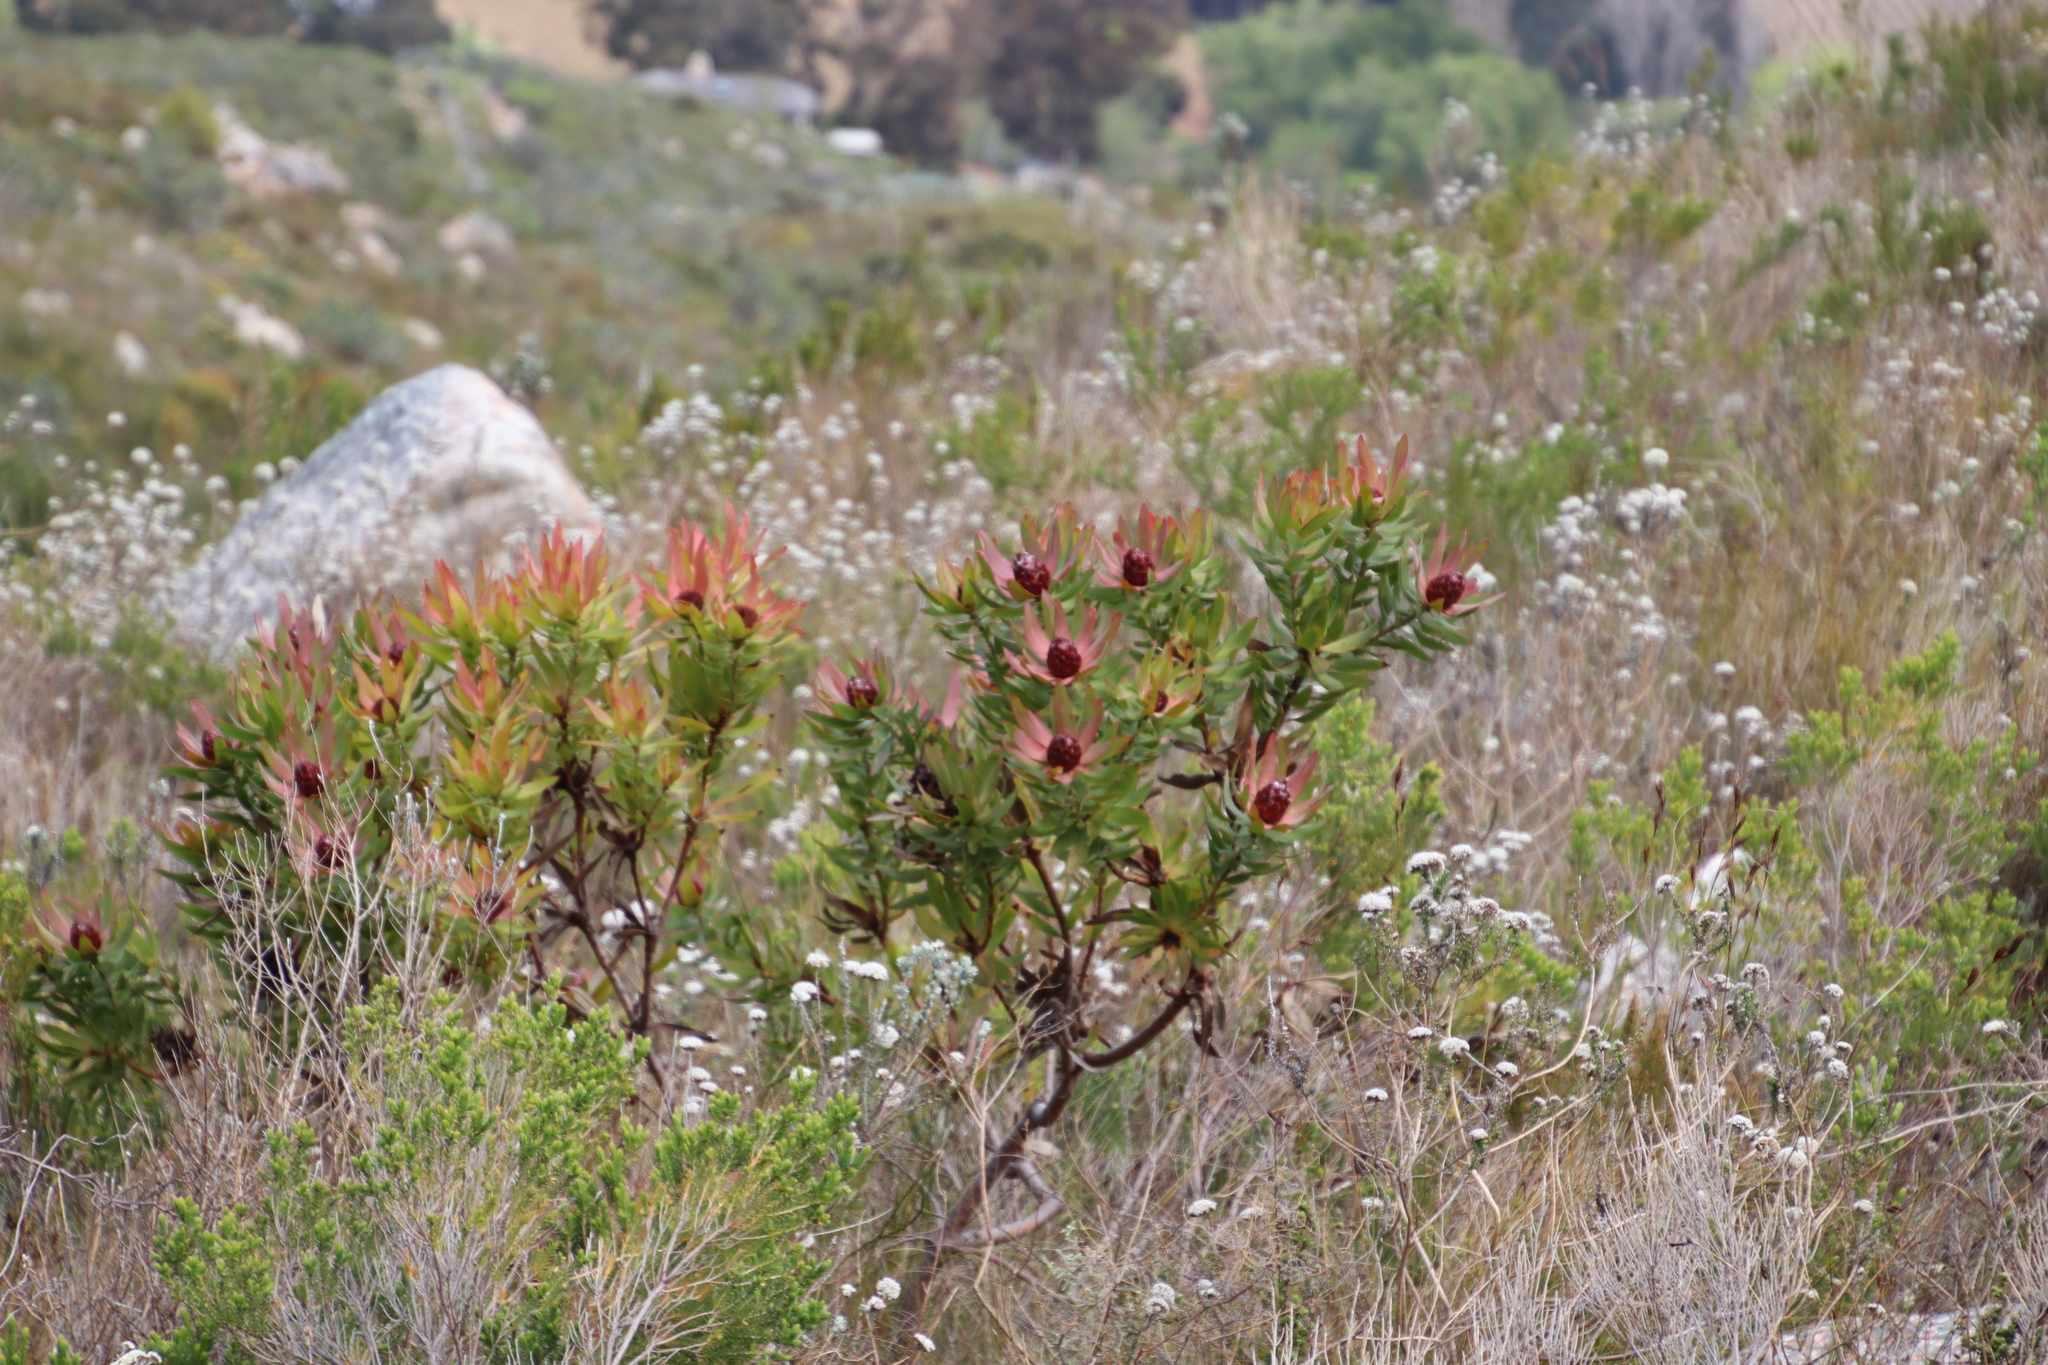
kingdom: Plantae
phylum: Tracheophyta
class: Magnoliopsida
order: Proteales
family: Proteaceae
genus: Leucadendron
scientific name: Leucadendron sessile
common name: Western sunbush
